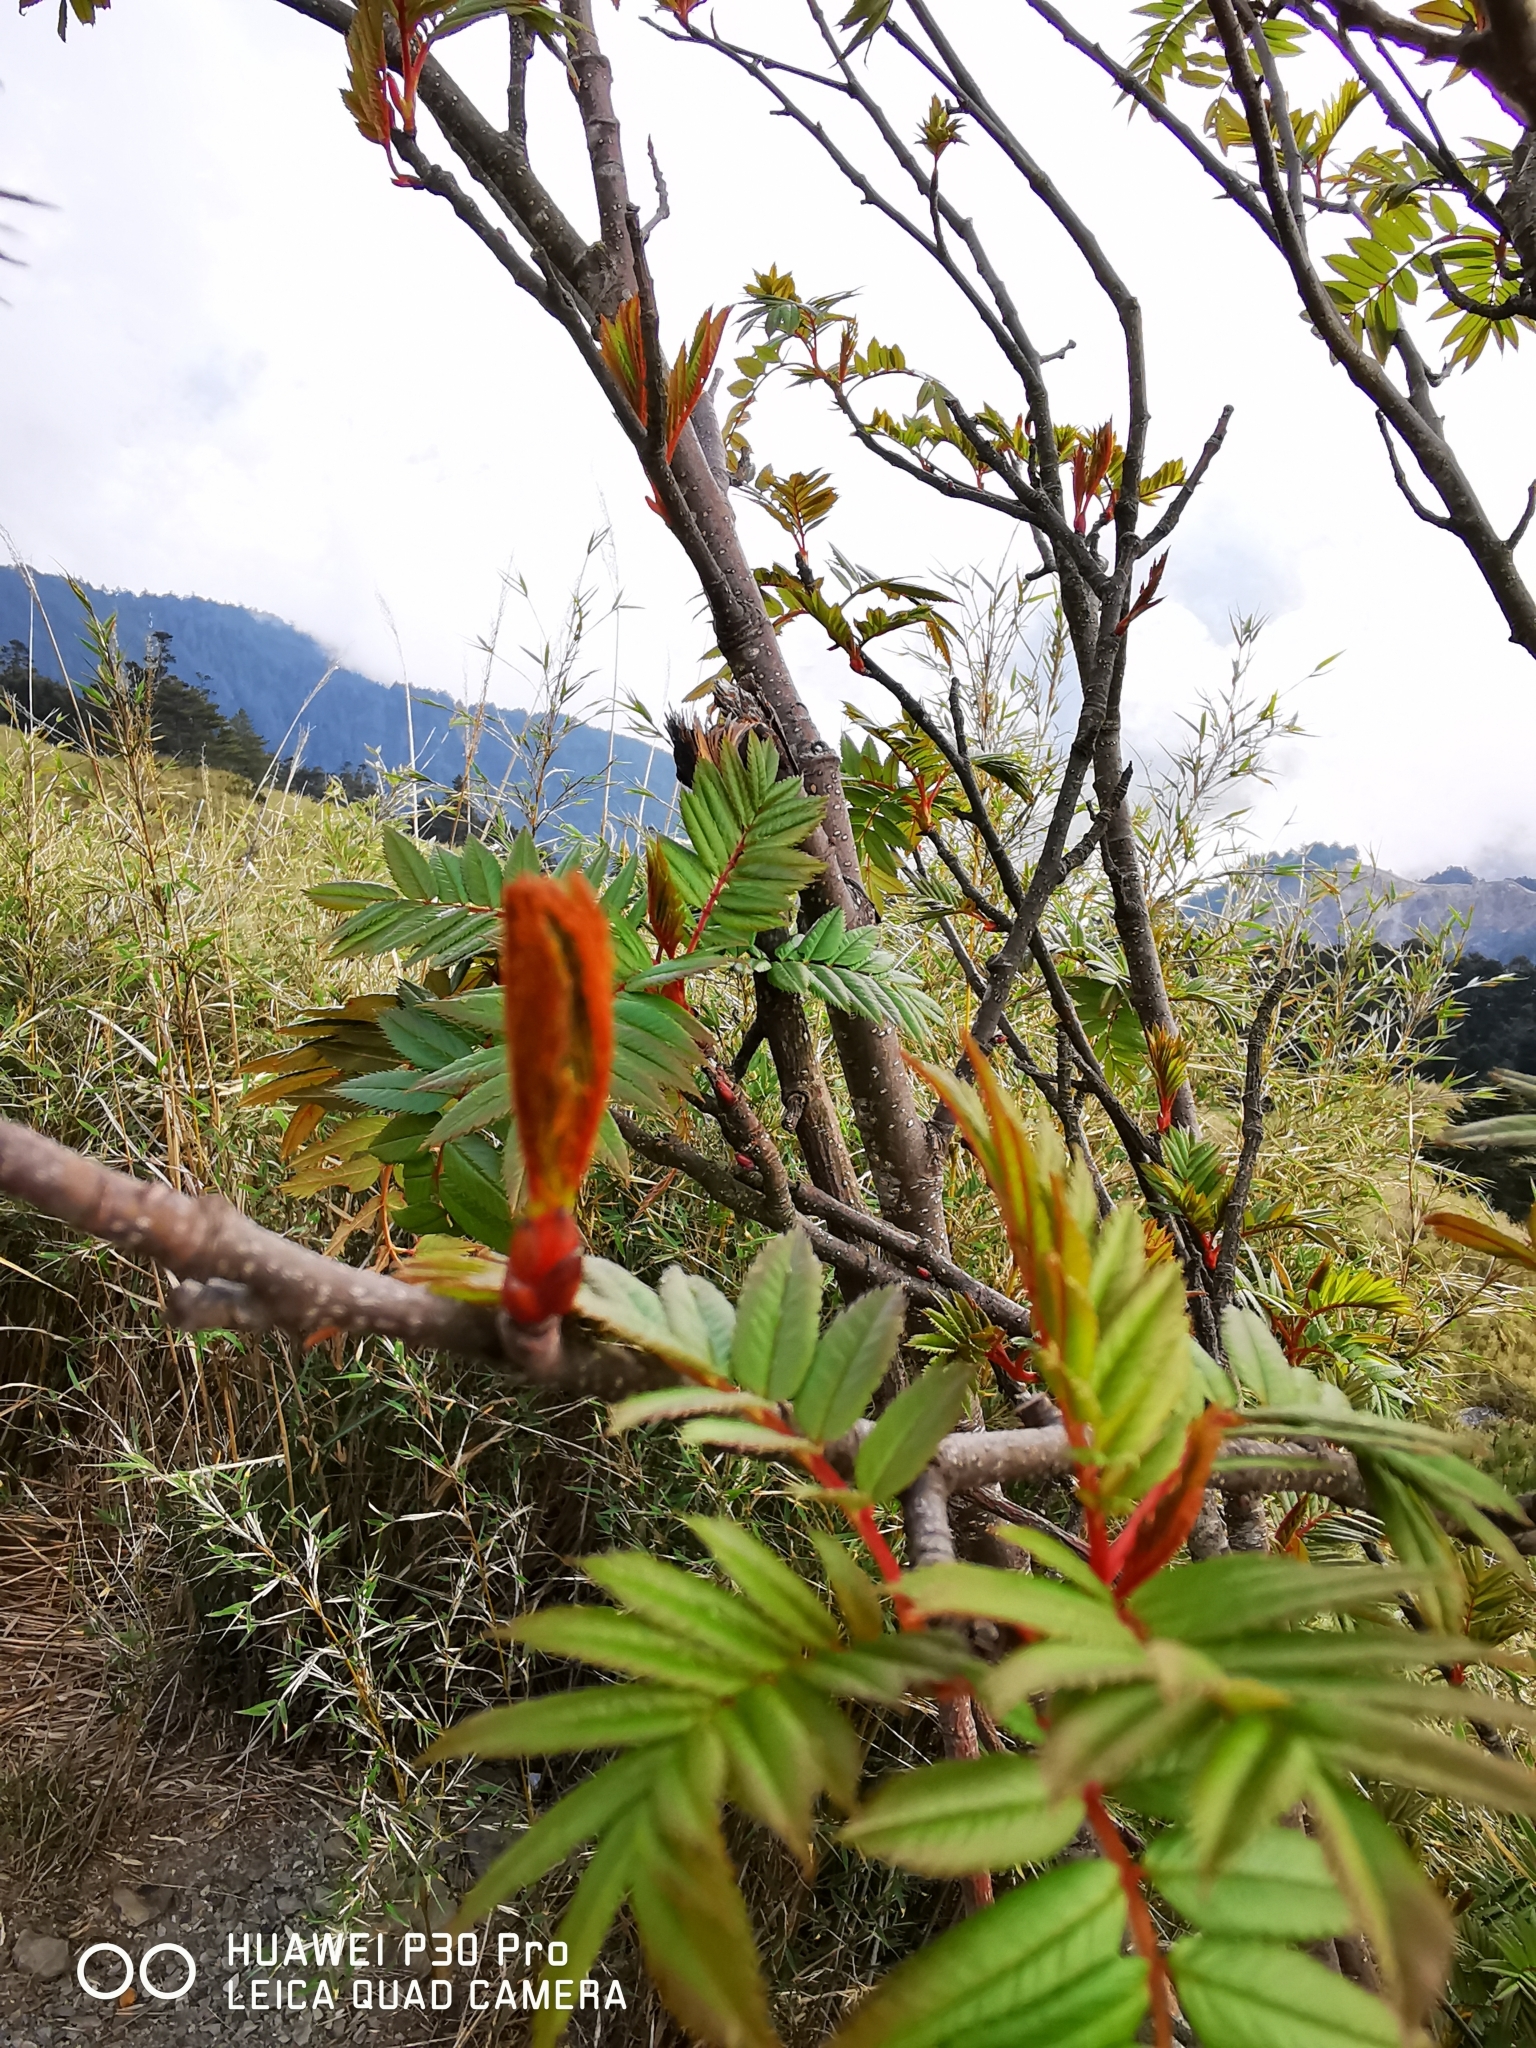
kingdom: Plantae
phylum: Tracheophyta
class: Magnoliopsida
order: Rosales
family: Rosaceae
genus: Sorbus
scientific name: Sorbus randaiensis
